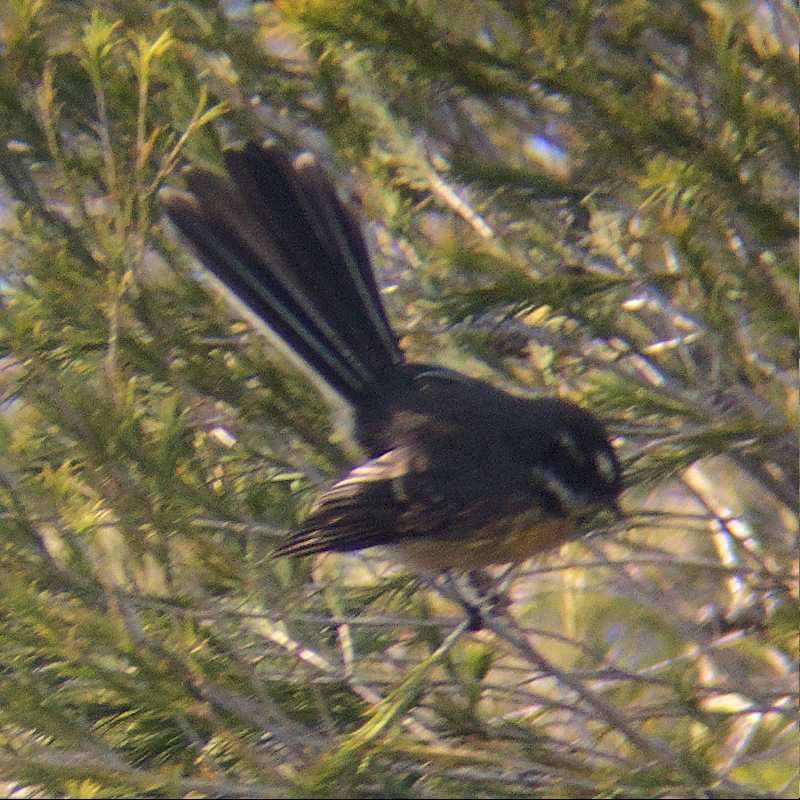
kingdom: Animalia
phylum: Chordata
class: Aves
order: Passeriformes
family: Rhipiduridae
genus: Rhipidura
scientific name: Rhipidura albiscapa
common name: Grey fantail
